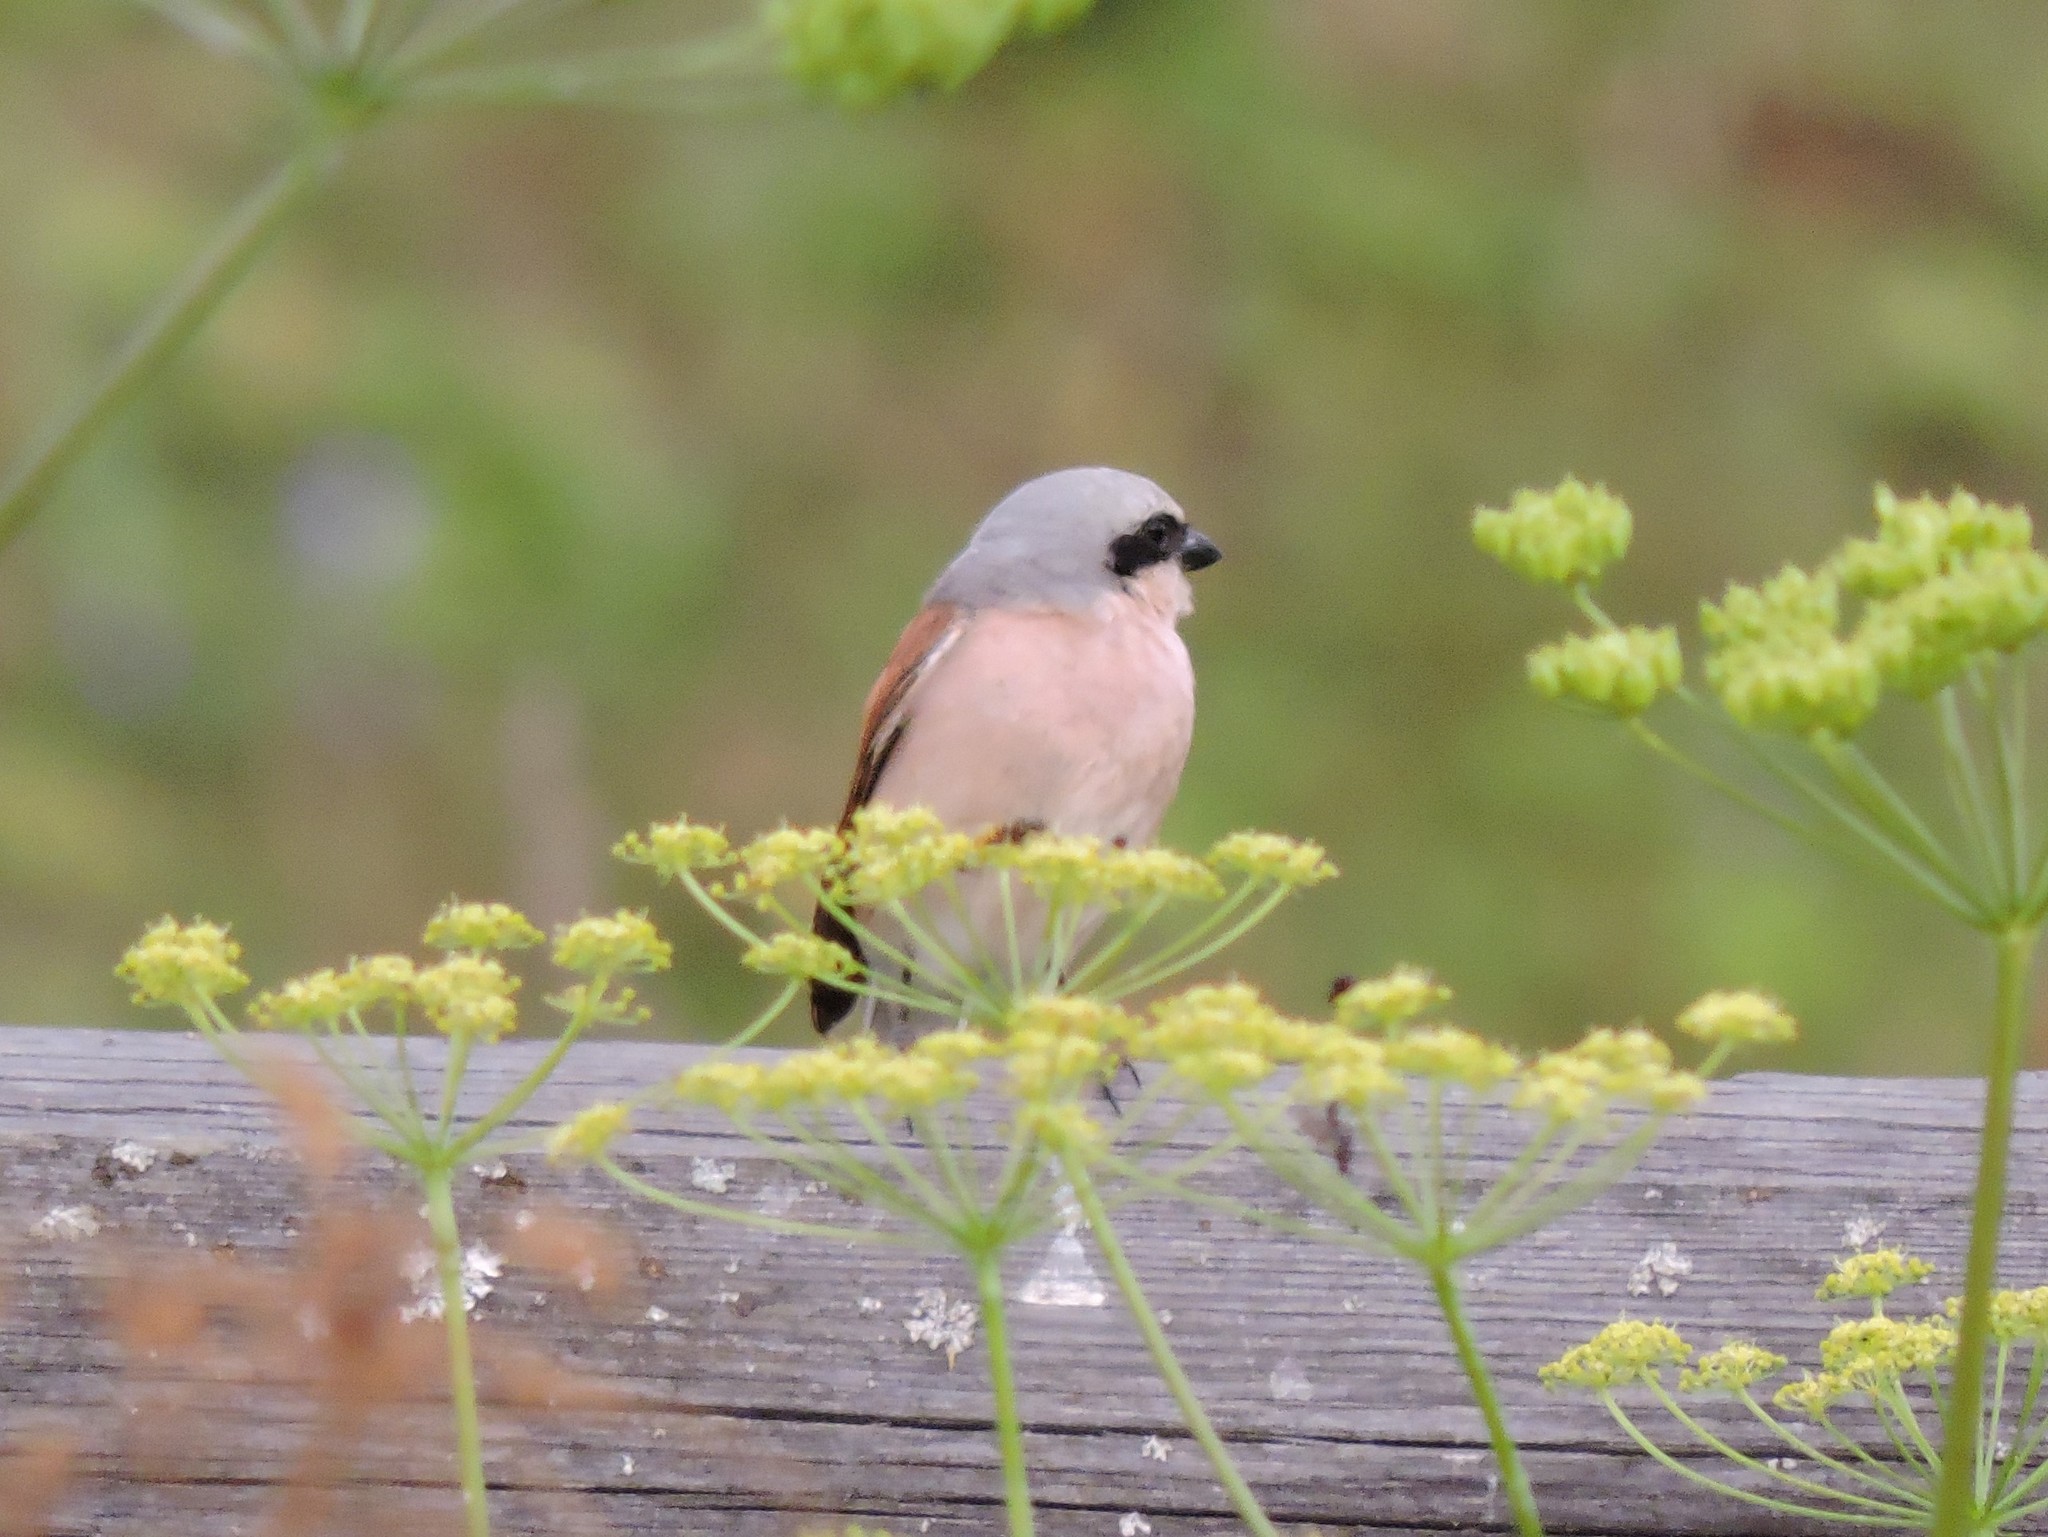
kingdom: Animalia
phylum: Chordata
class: Aves
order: Passeriformes
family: Laniidae
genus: Lanius
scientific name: Lanius collurio
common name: Red-backed shrike
